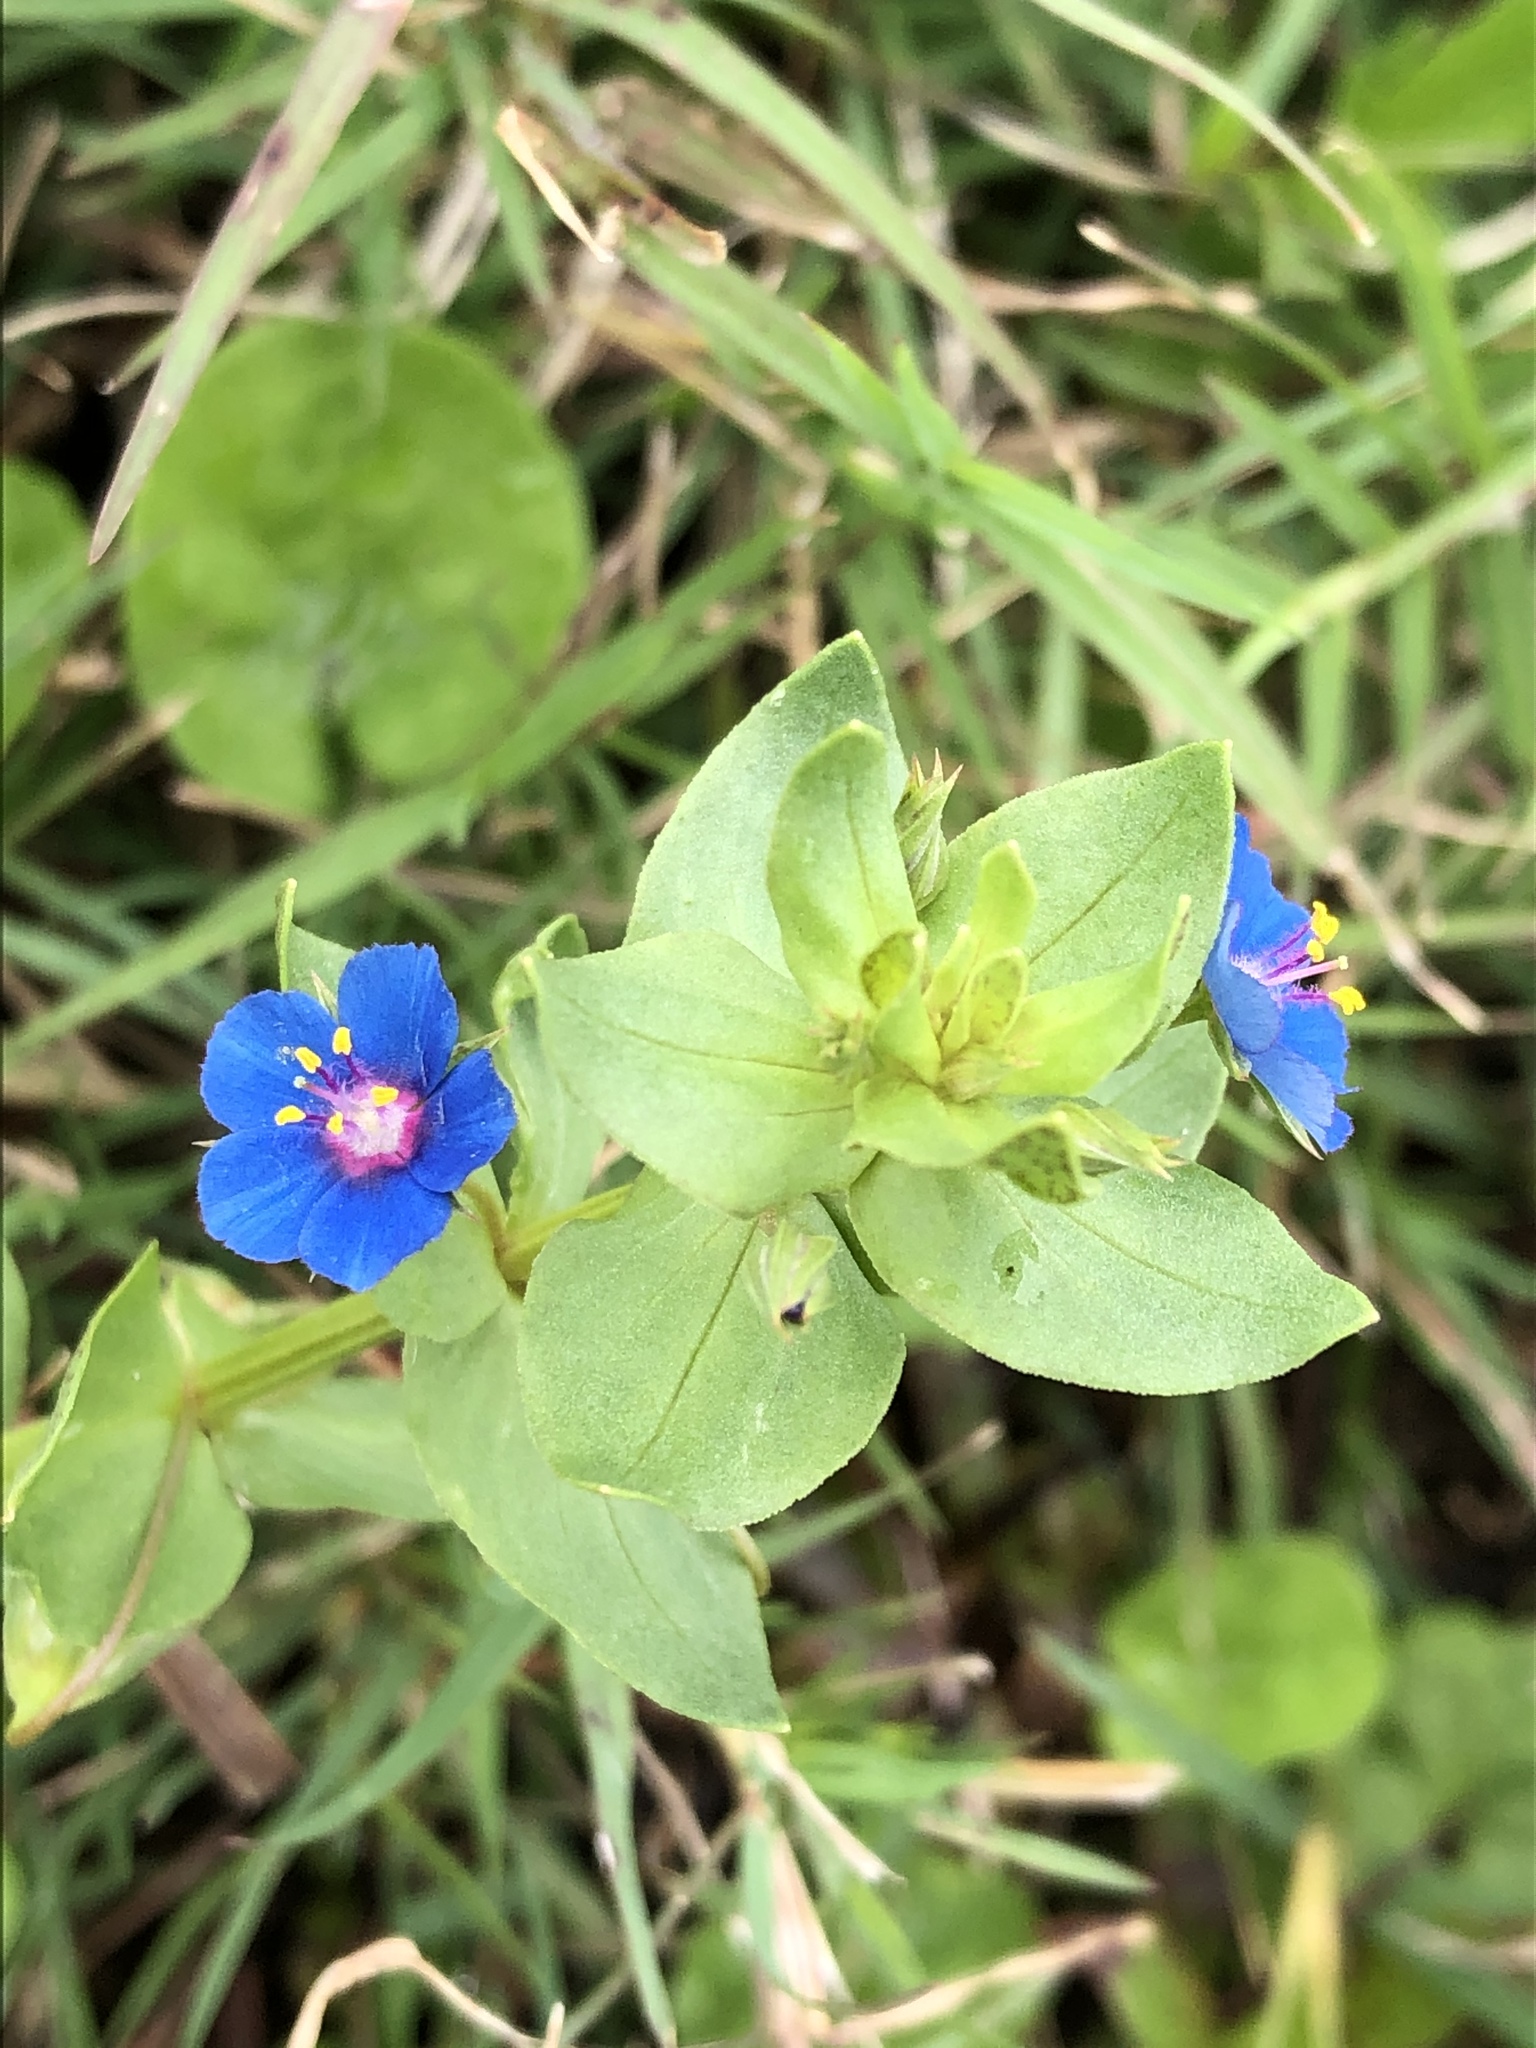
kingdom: Plantae
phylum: Tracheophyta
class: Magnoliopsida
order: Ericales
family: Primulaceae
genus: Lysimachia
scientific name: Lysimachia foemina
